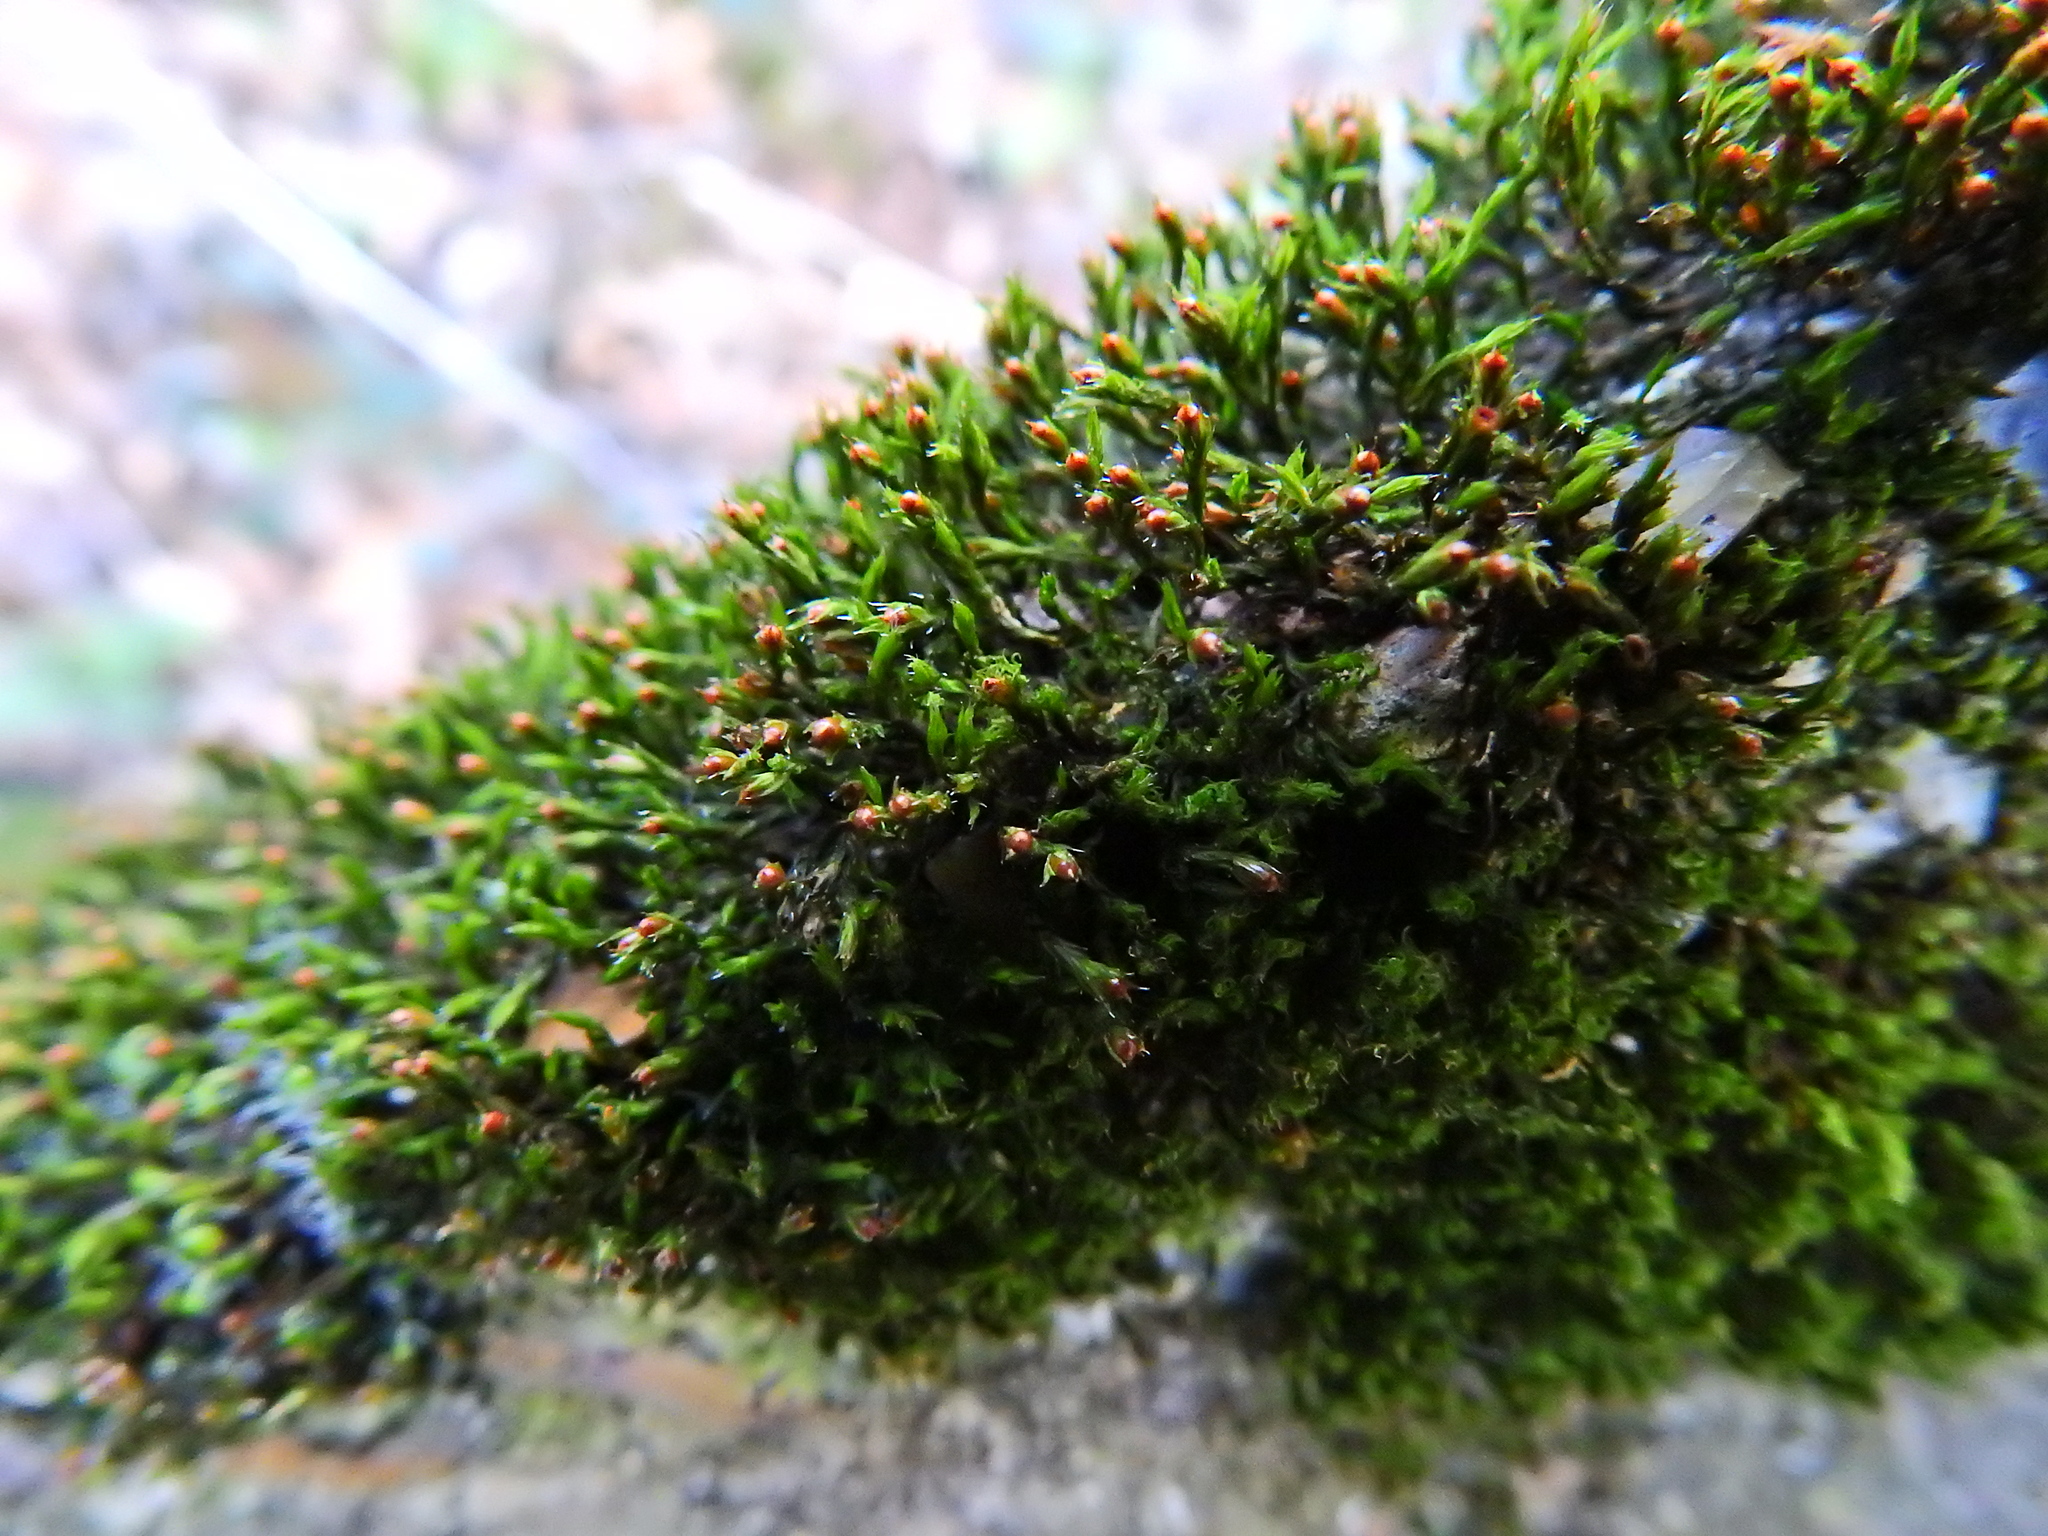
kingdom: Plantae
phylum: Bryophyta
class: Bryopsida
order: Grimmiales
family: Grimmiaceae
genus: Schistidium
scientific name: Schistidium crassipilum
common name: Thickpoint bloom moss
